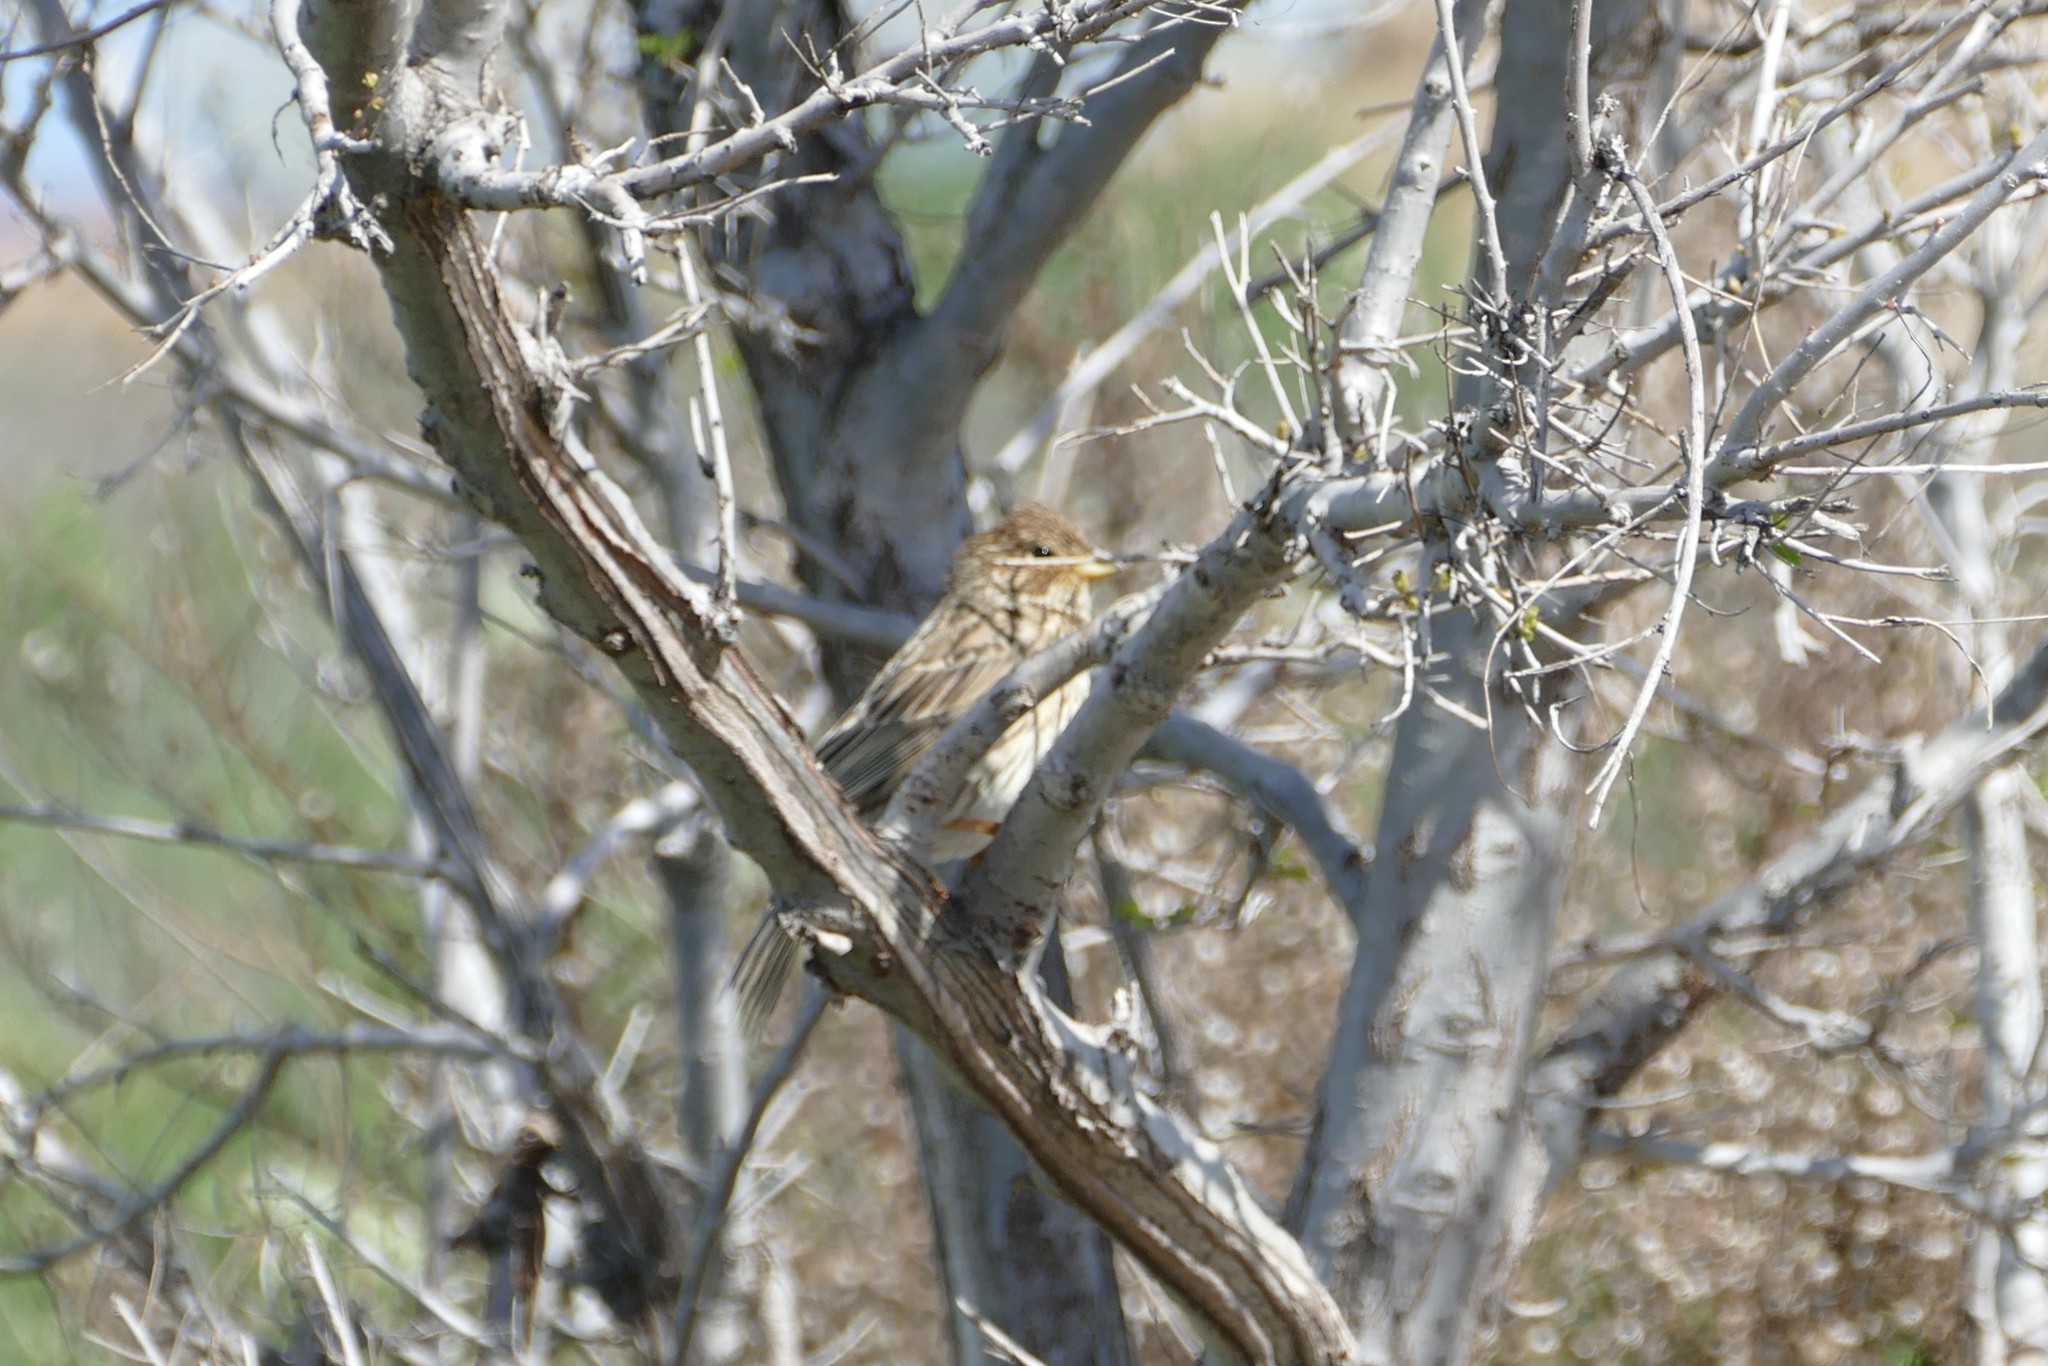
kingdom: Animalia
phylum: Chordata
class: Aves
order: Passeriformes
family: Emberizidae
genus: Emberiza
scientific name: Emberiza calandra
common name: Corn bunting
